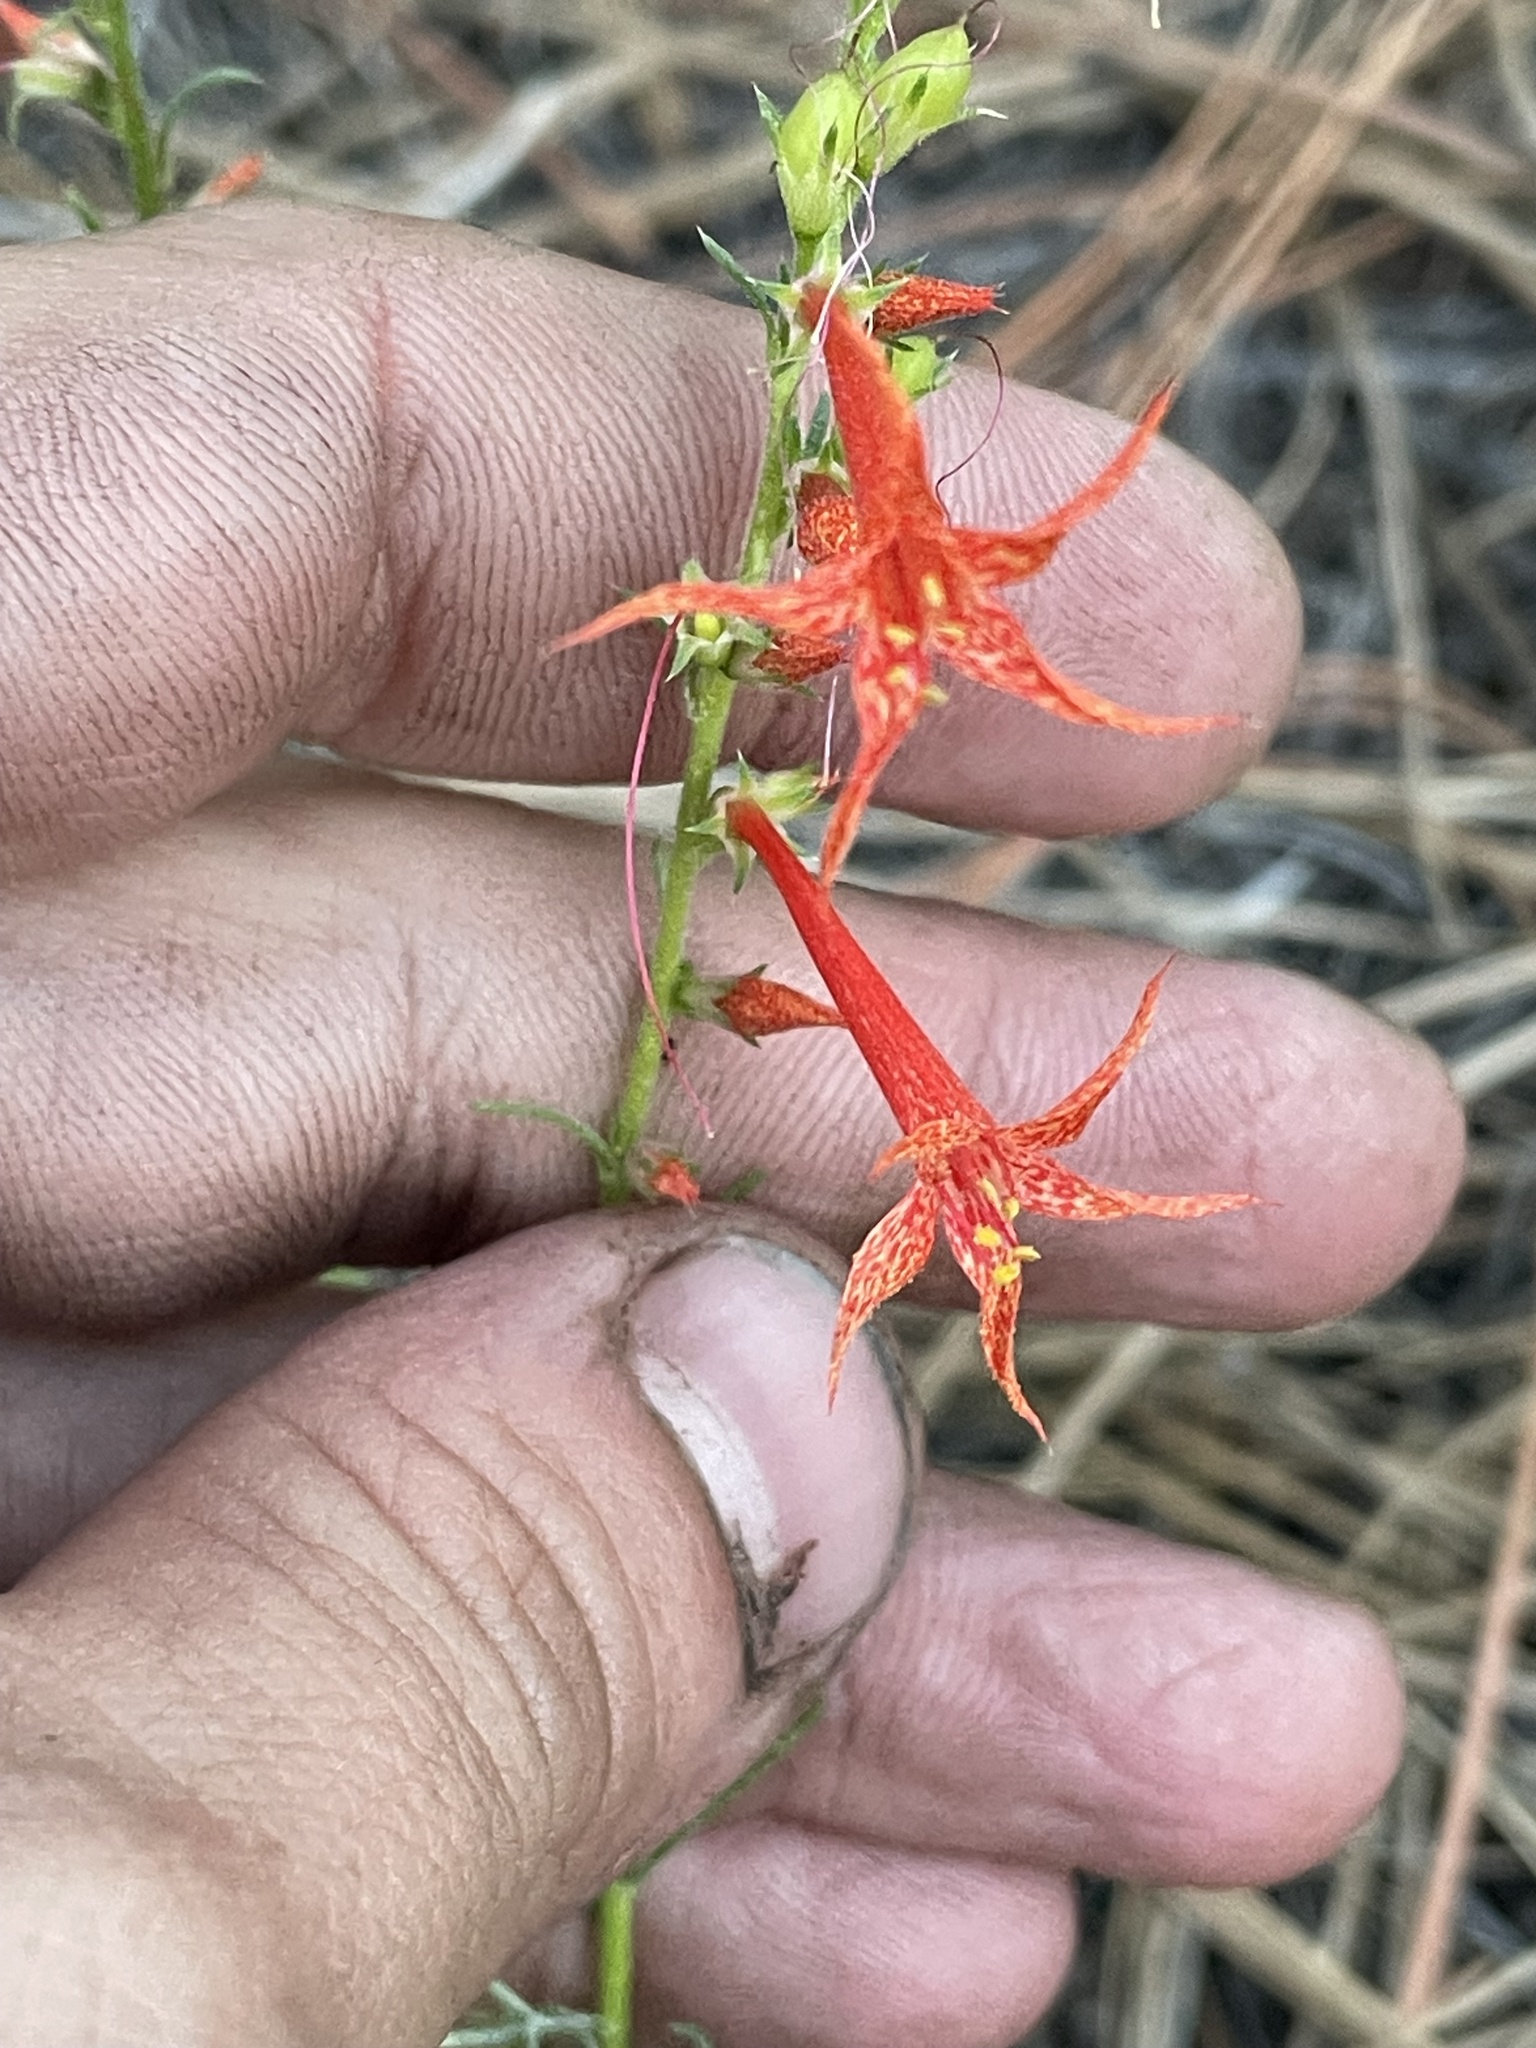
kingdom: Plantae
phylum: Tracheophyta
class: Magnoliopsida
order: Ericales
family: Polemoniaceae
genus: Ipomopsis
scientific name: Ipomopsis aggregata
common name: Scarlet gilia
